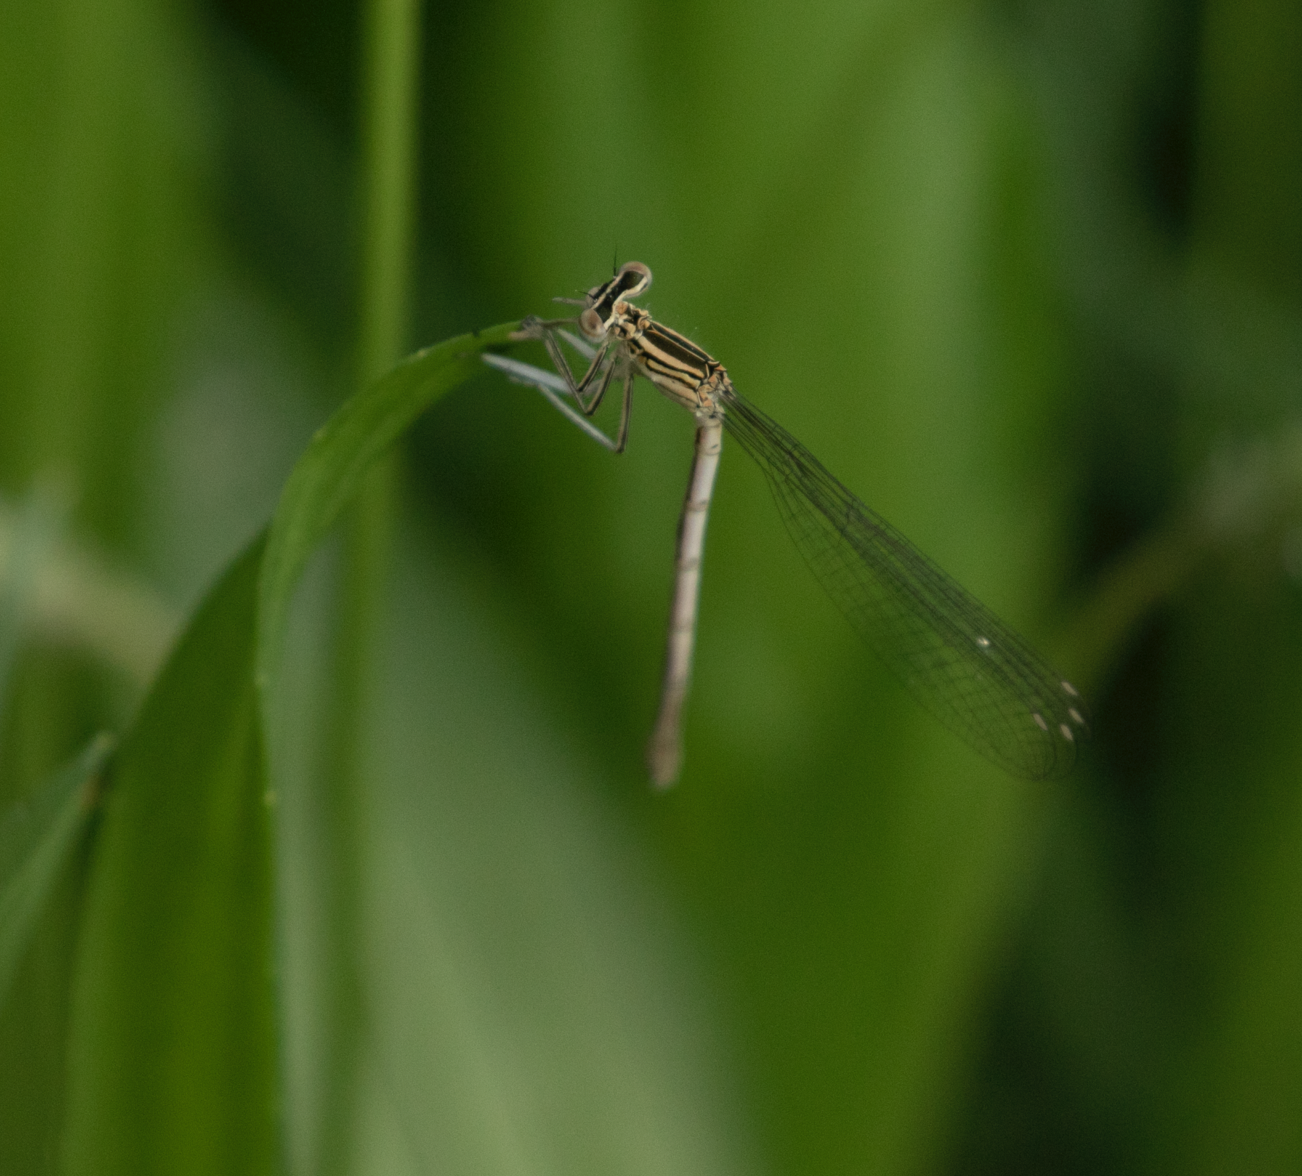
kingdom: Animalia
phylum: Arthropoda
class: Insecta
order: Odonata
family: Platycnemididae
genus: Platycnemis
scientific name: Platycnemis pennipes
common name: White-legged damselfly
